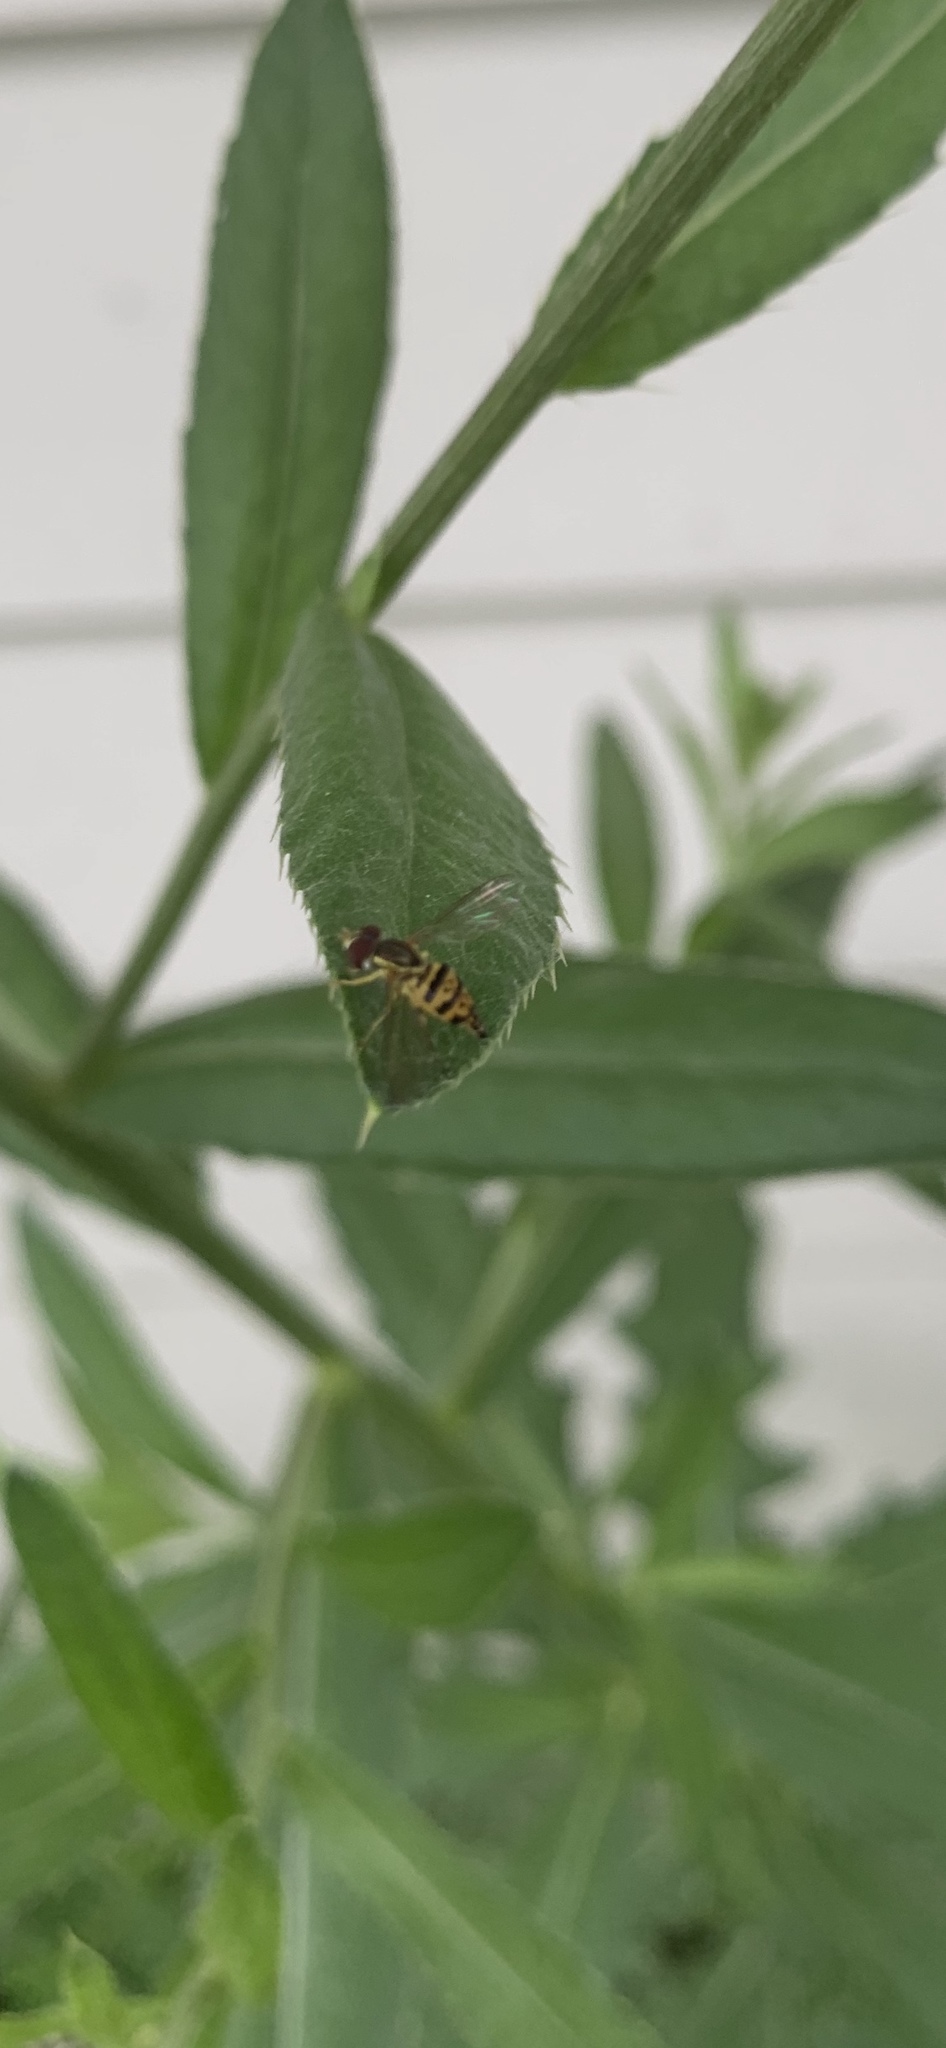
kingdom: Animalia
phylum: Arthropoda
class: Insecta
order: Diptera
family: Syrphidae
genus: Toxomerus
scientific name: Toxomerus geminatus
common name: Eastern calligrapher
